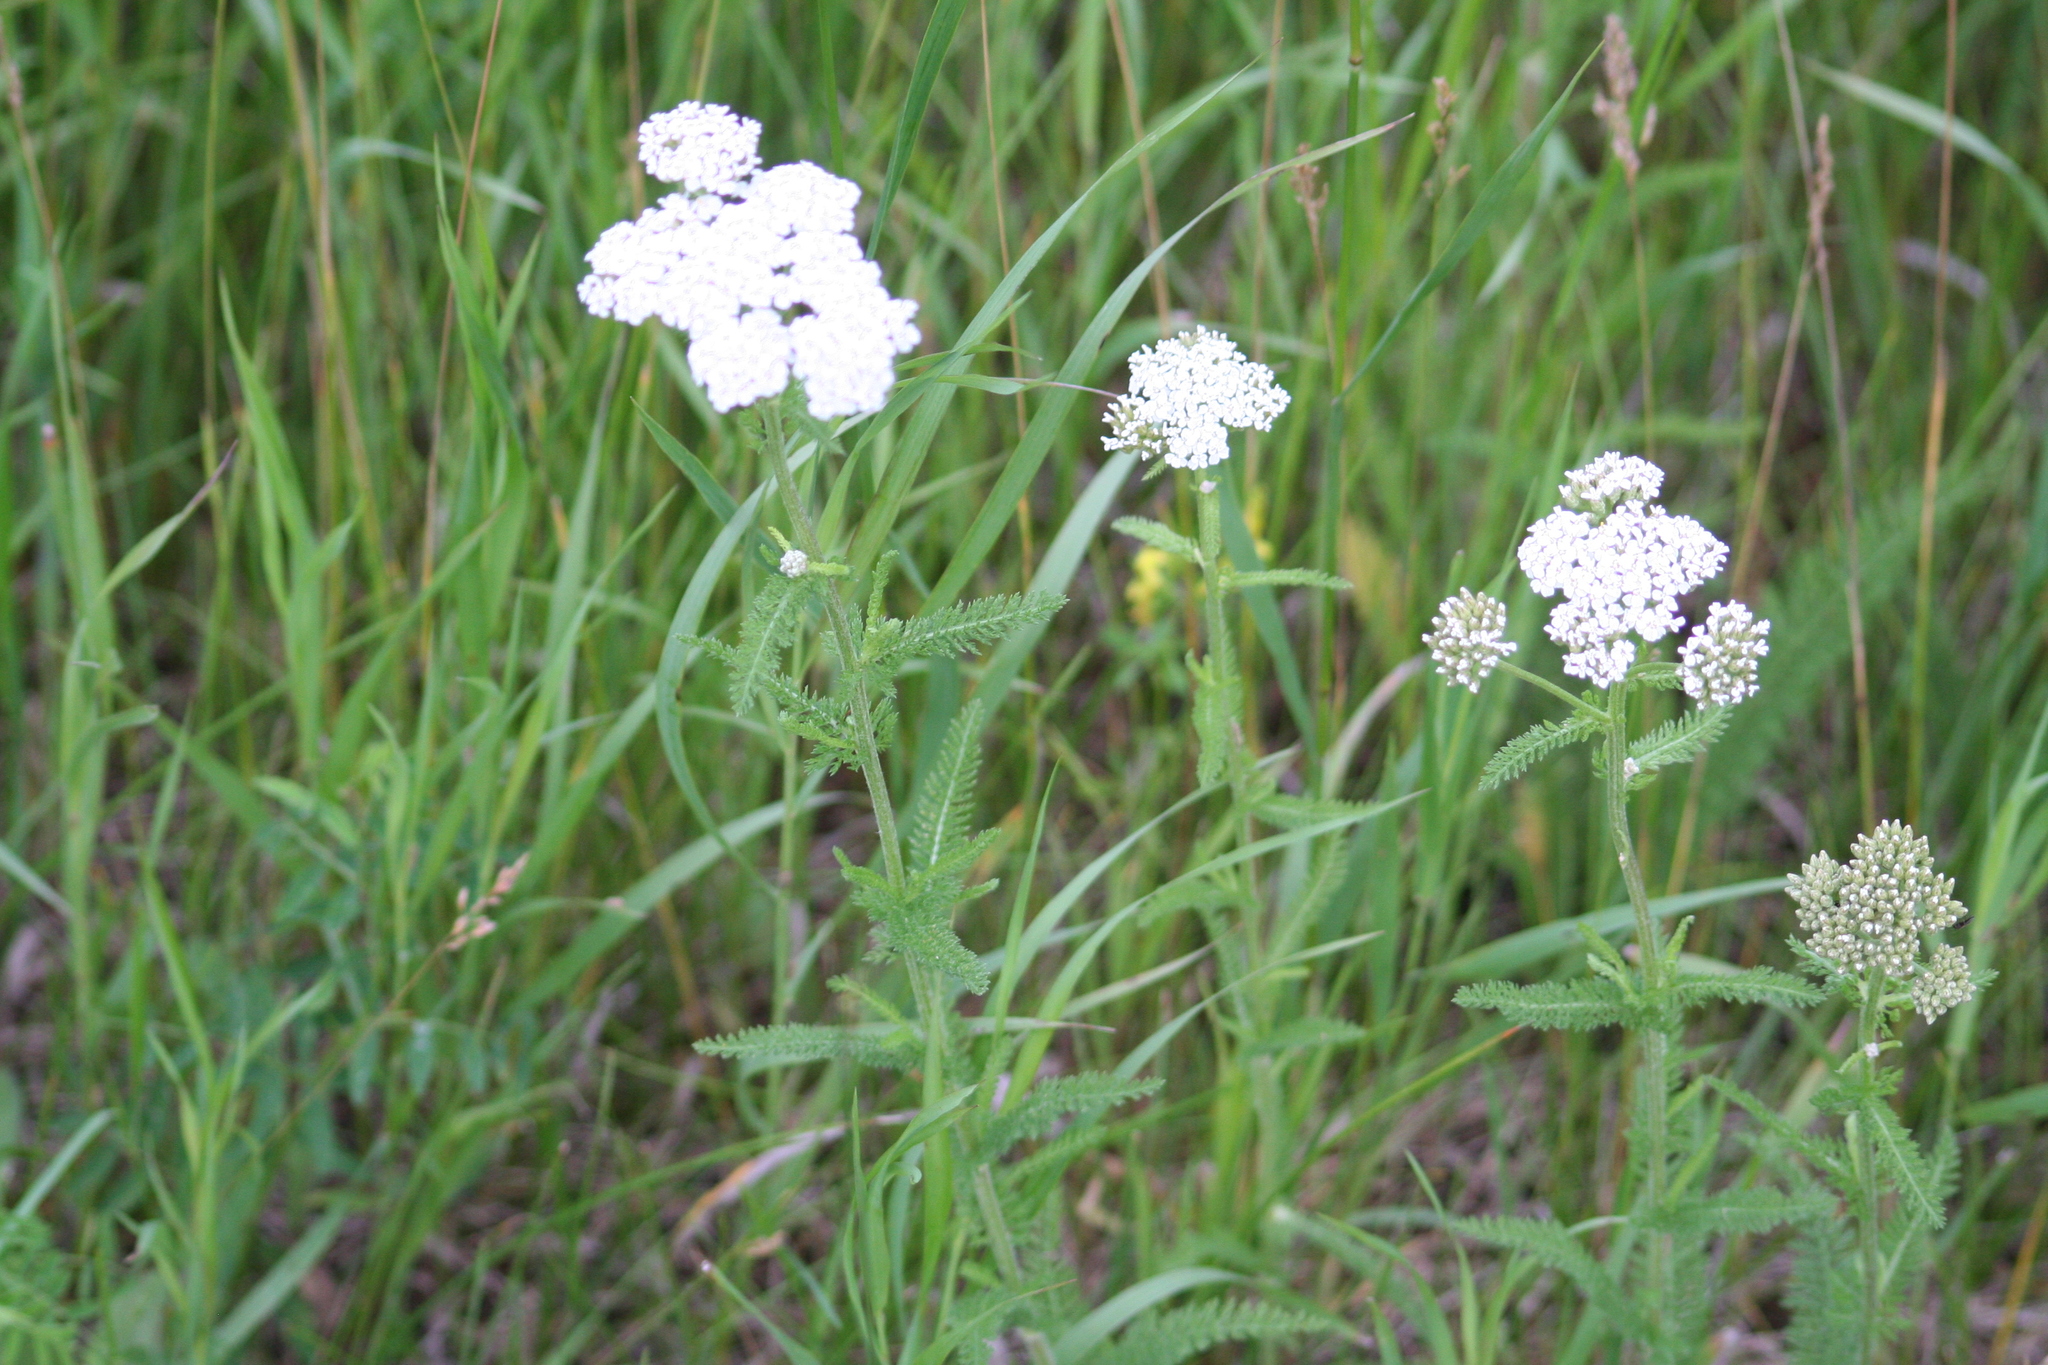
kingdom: Plantae
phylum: Tracheophyta
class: Magnoliopsida
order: Asterales
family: Asteraceae
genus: Achillea
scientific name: Achillea millefolium
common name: Yarrow
